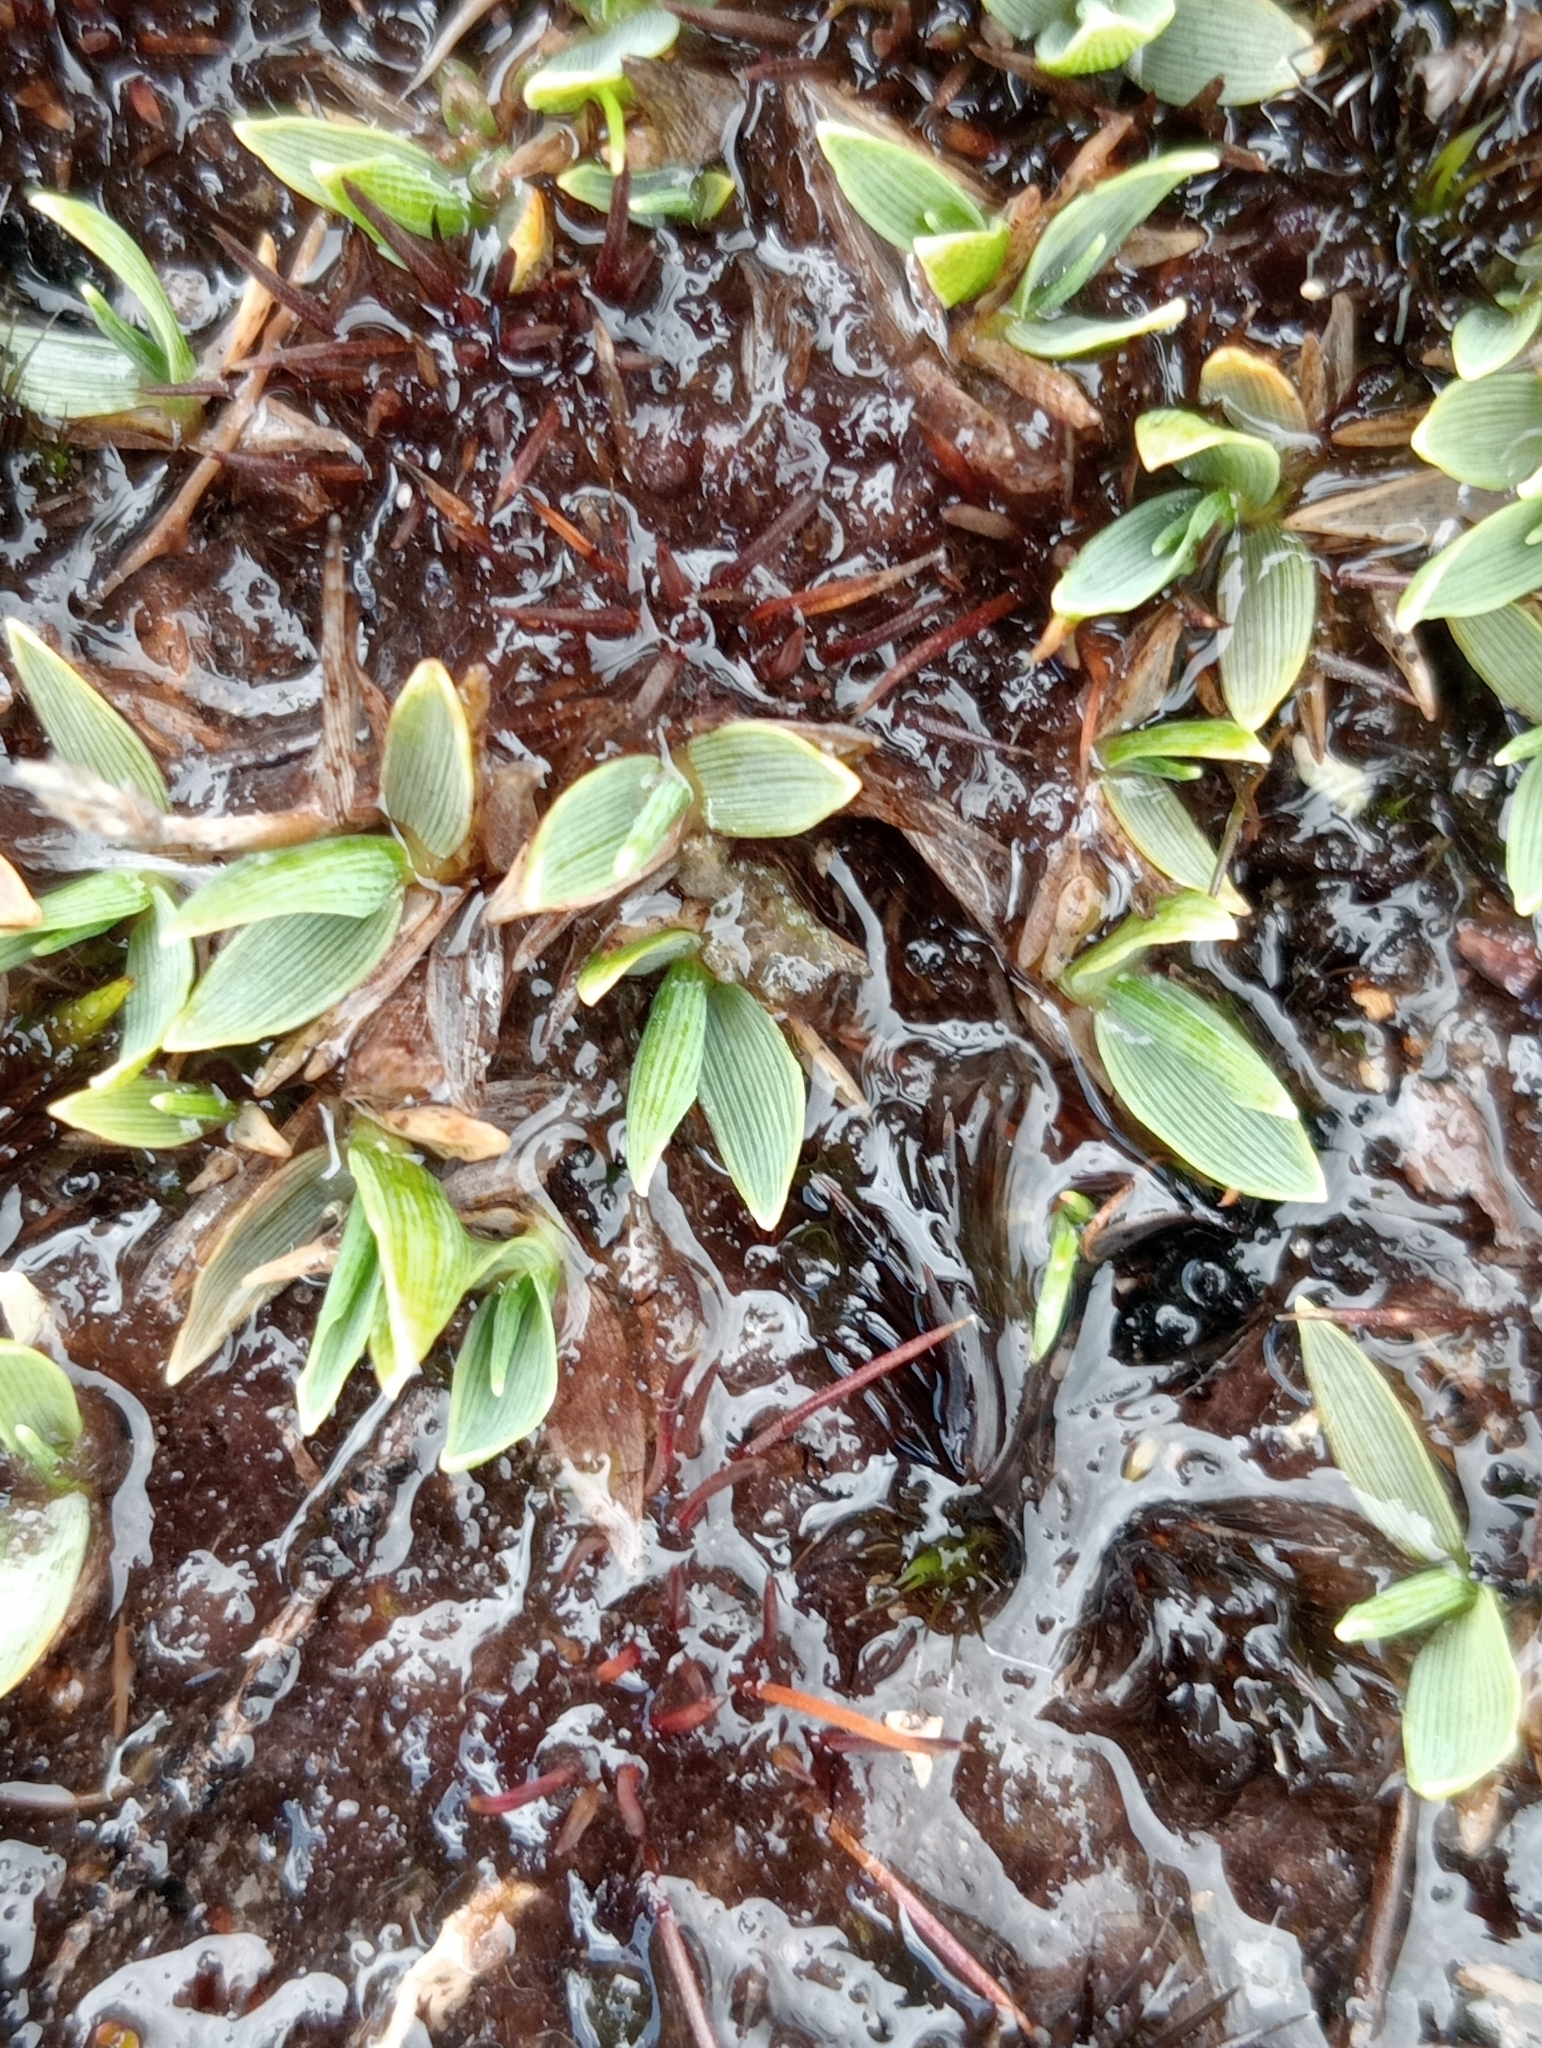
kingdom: Plantae
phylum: Tracheophyta
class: Liliopsida
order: Poales
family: Poaceae
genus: Zotovia
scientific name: Zotovia thomsonii
